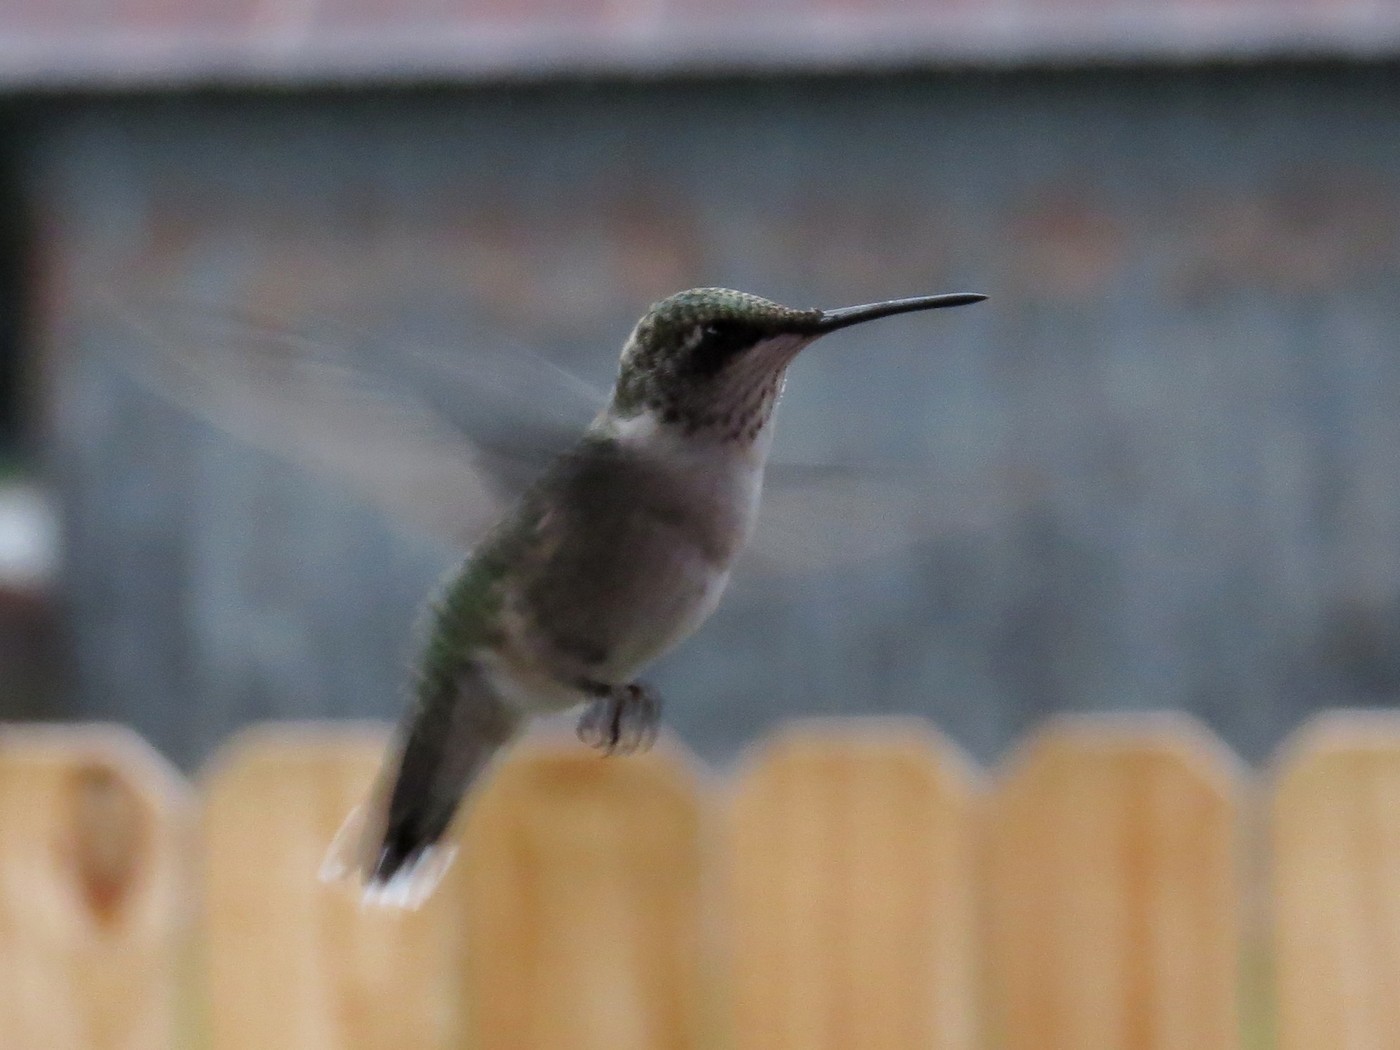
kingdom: Animalia
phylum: Chordata
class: Aves
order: Apodiformes
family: Trochilidae
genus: Archilochus
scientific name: Archilochus colubris
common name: Ruby-throated hummingbird
